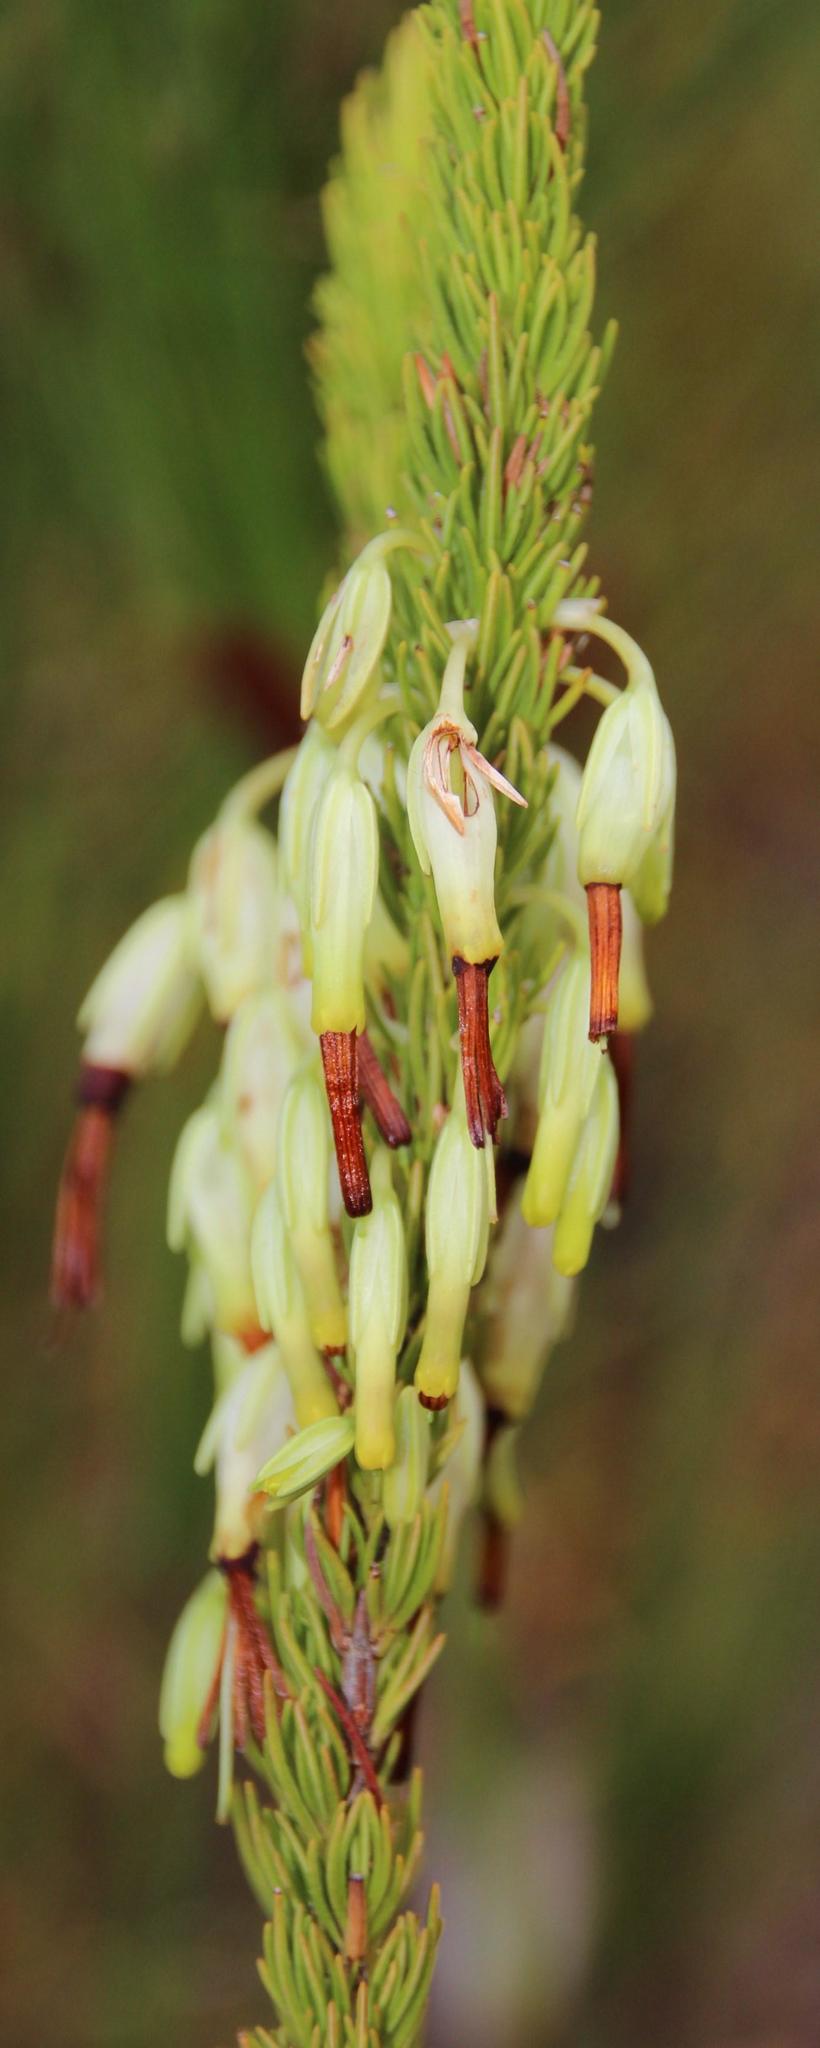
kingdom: Plantae
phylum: Tracheophyta
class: Magnoliopsida
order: Ericales
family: Ericaceae
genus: Erica
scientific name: Erica plukenetii
